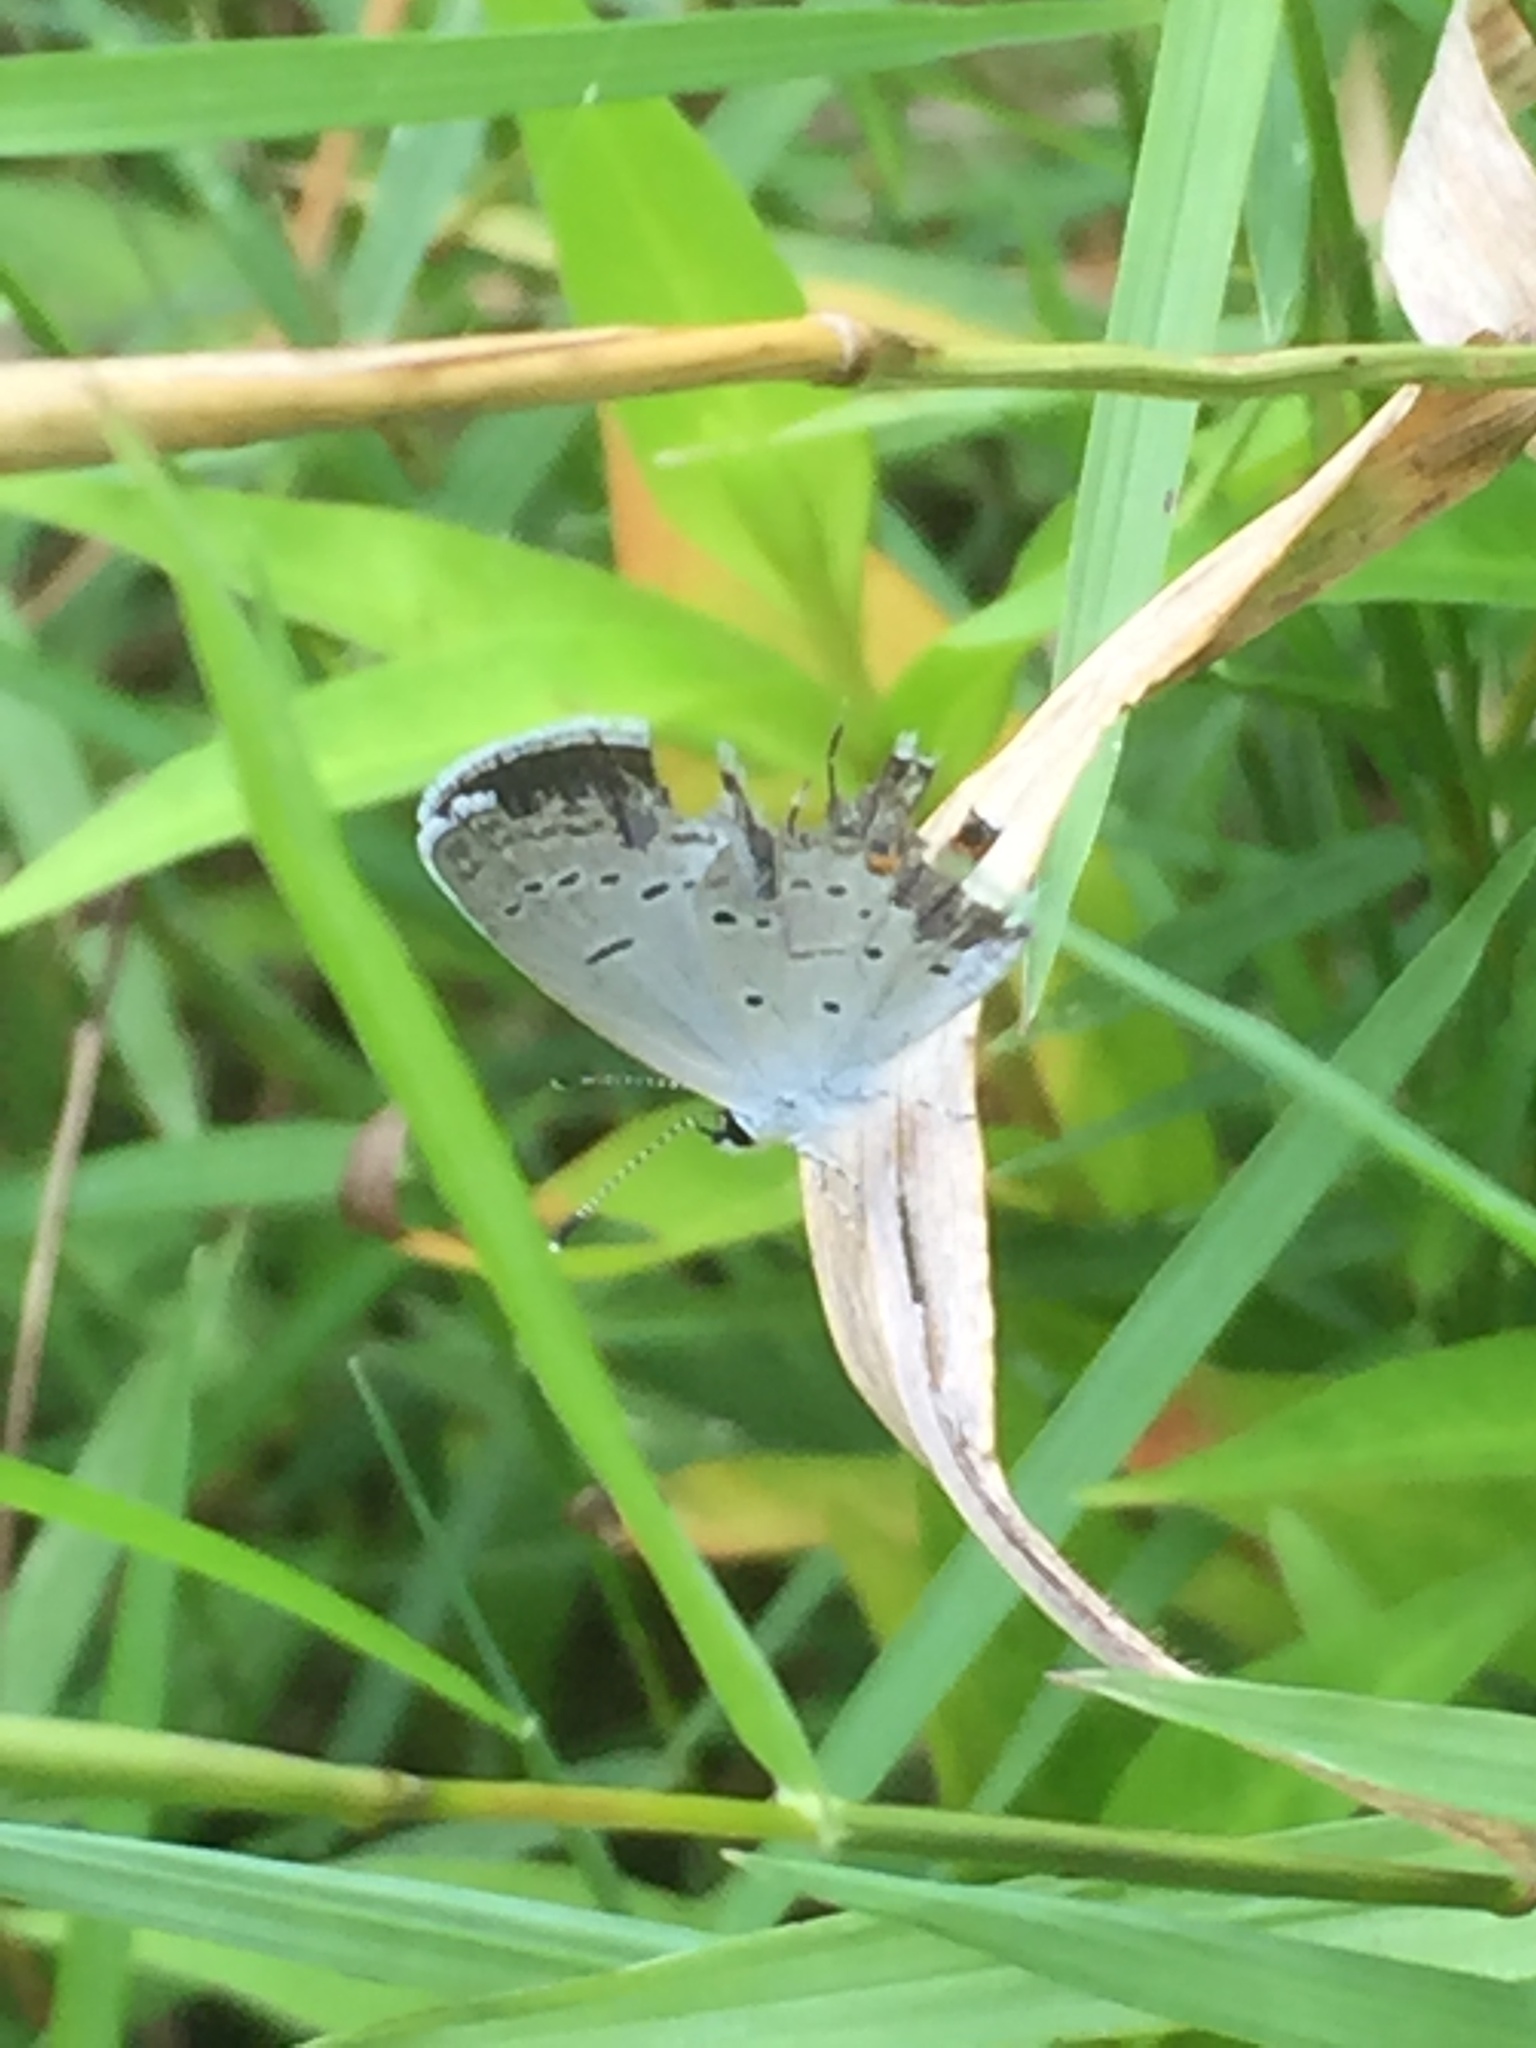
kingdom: Animalia
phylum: Arthropoda
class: Insecta
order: Lepidoptera
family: Lycaenidae
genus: Elkalyce
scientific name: Elkalyce comyntas
